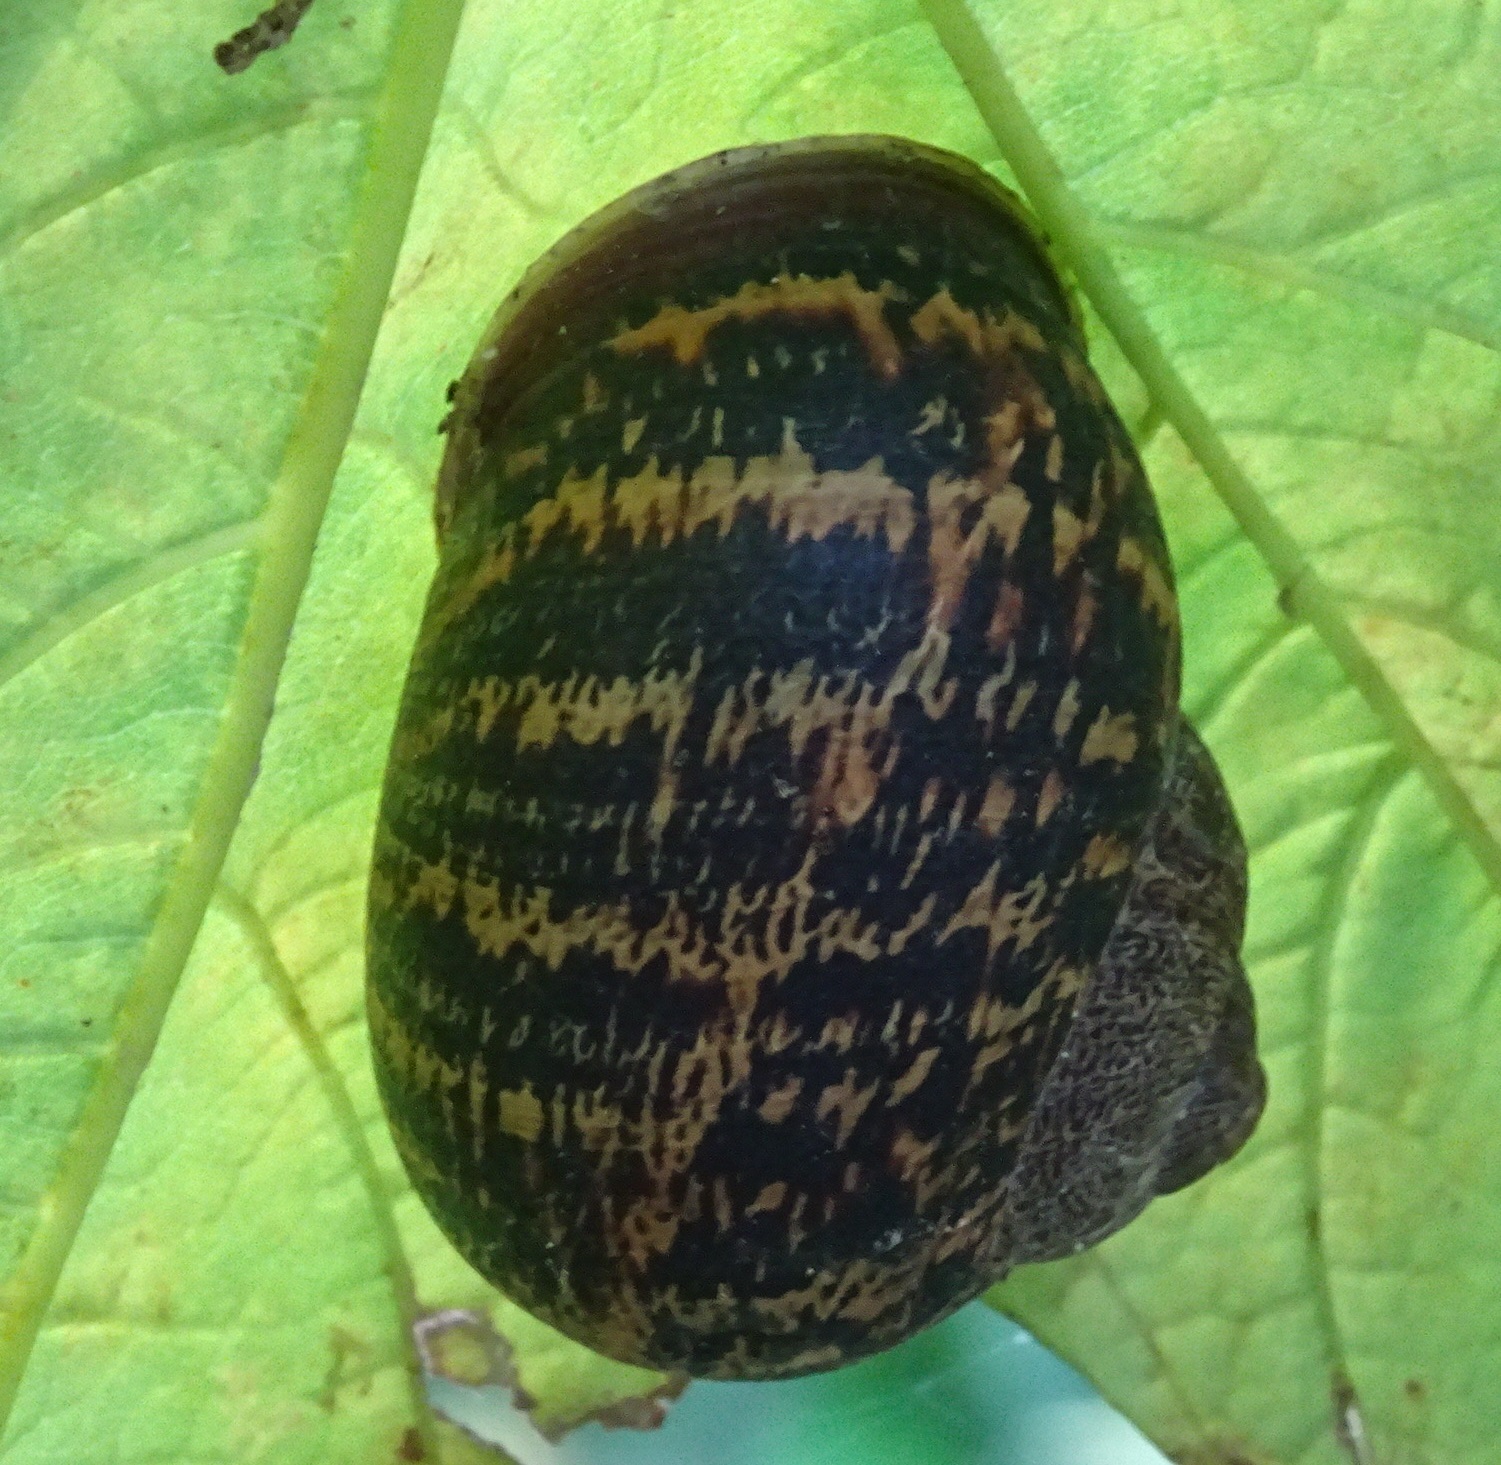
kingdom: Animalia
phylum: Mollusca
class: Gastropoda
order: Stylommatophora
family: Helicidae
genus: Cornu
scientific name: Cornu aspersum
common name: Brown garden snail
